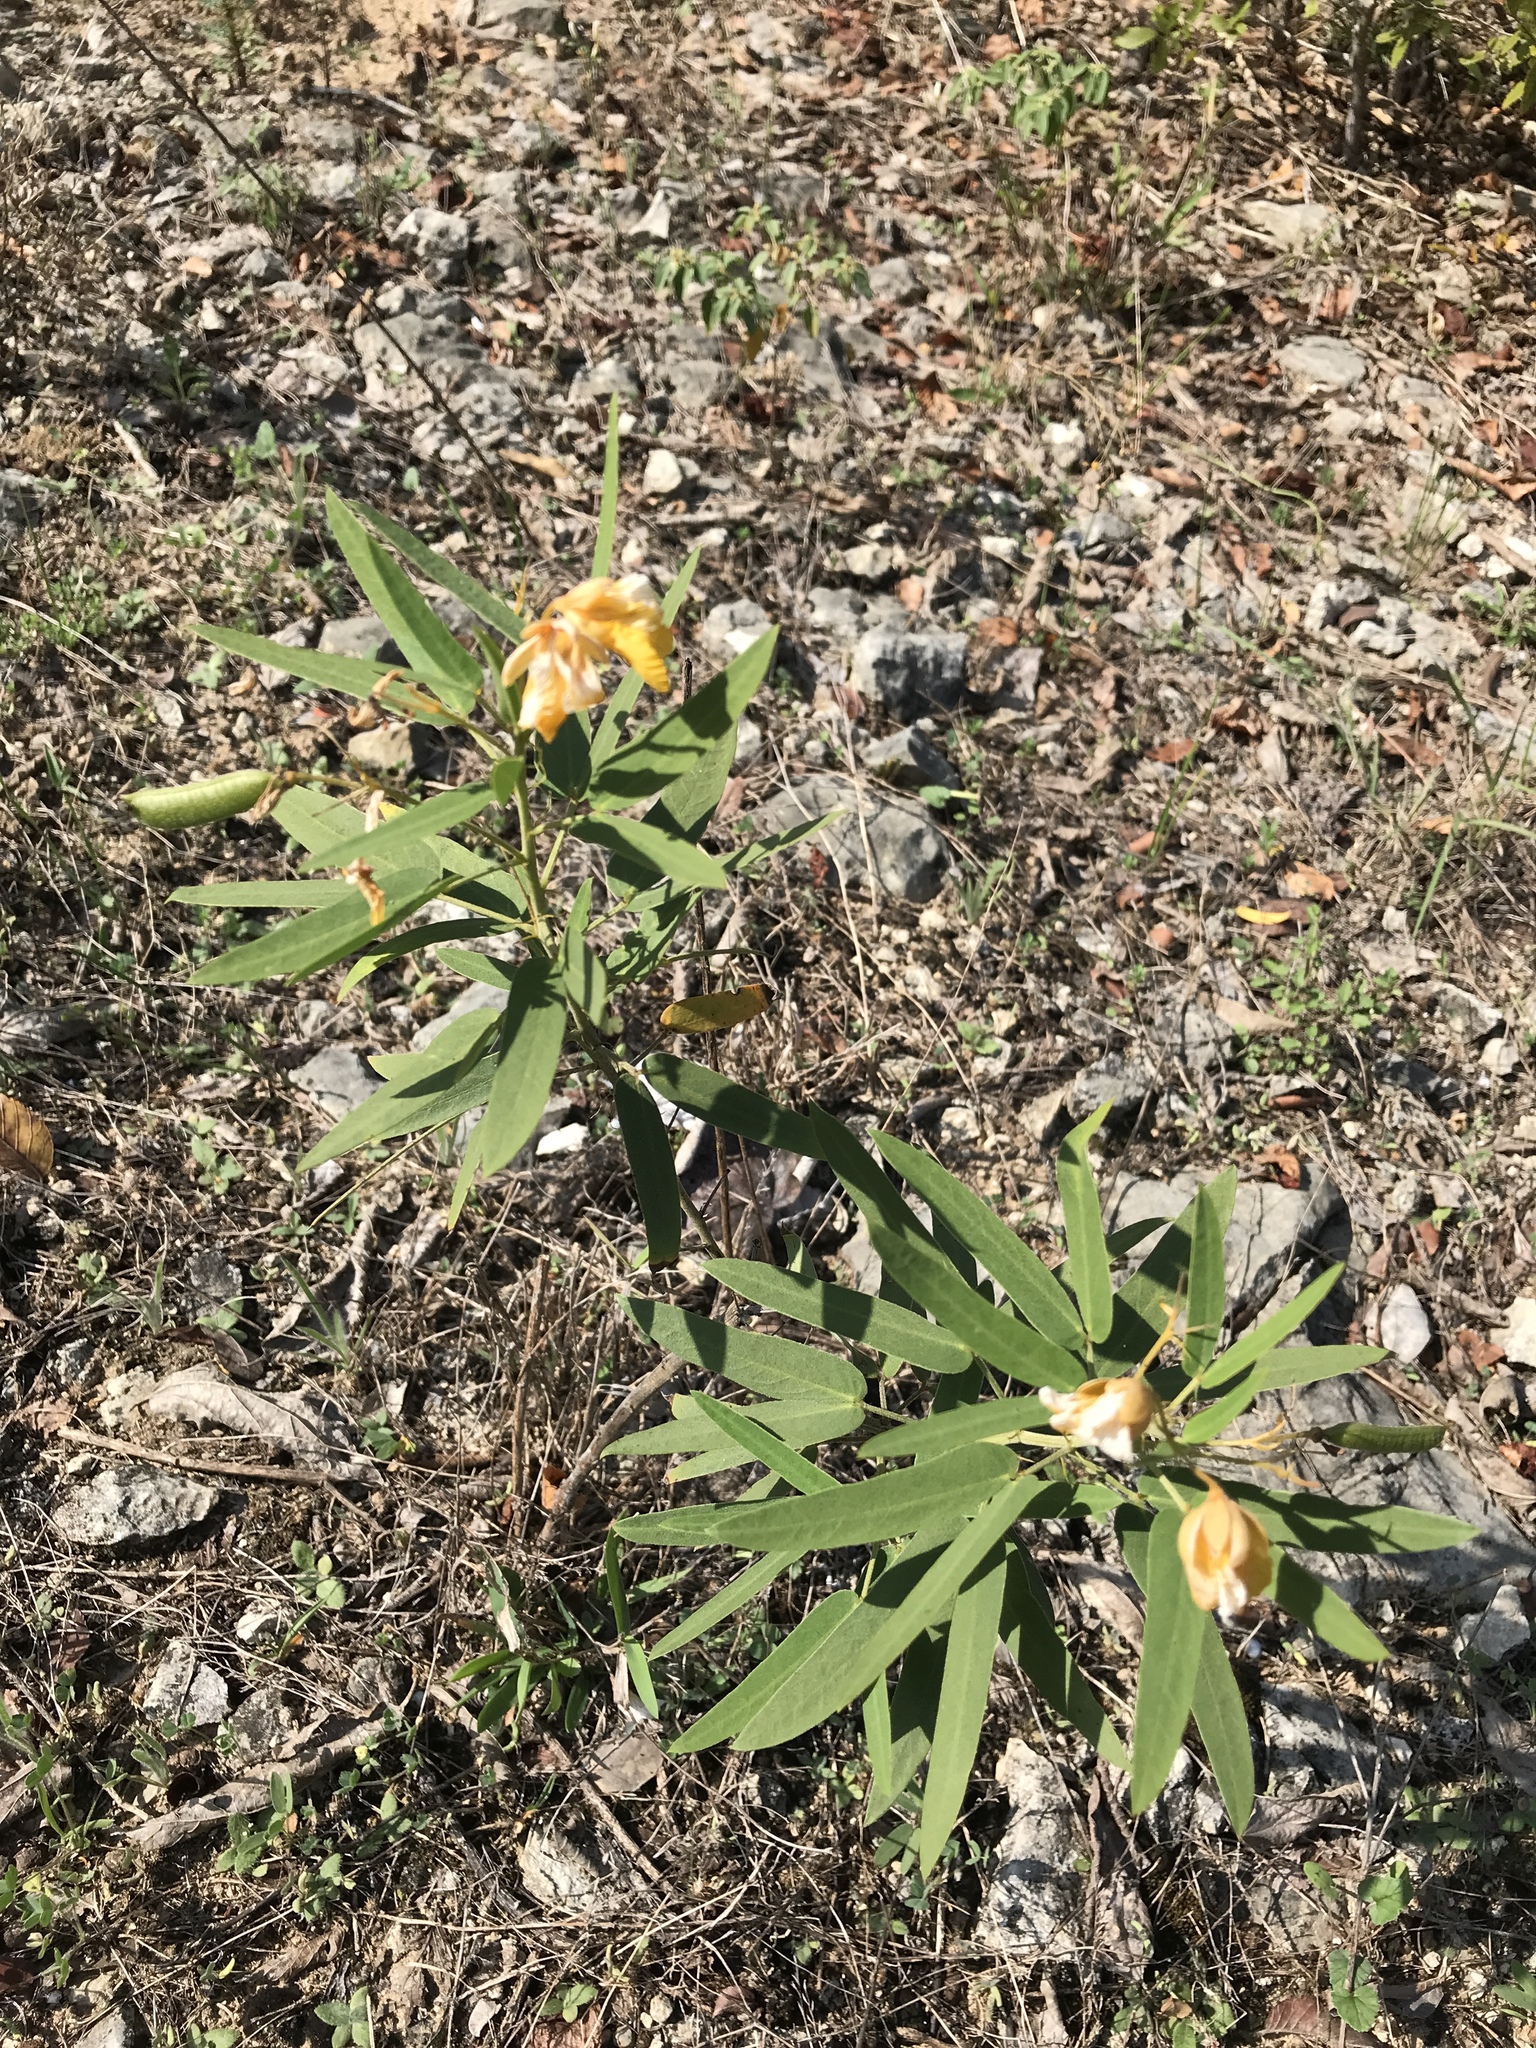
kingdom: Plantae
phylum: Tracheophyta
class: Magnoliopsida
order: Fabales
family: Fabaceae
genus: Senna
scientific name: Senna roemeriana
